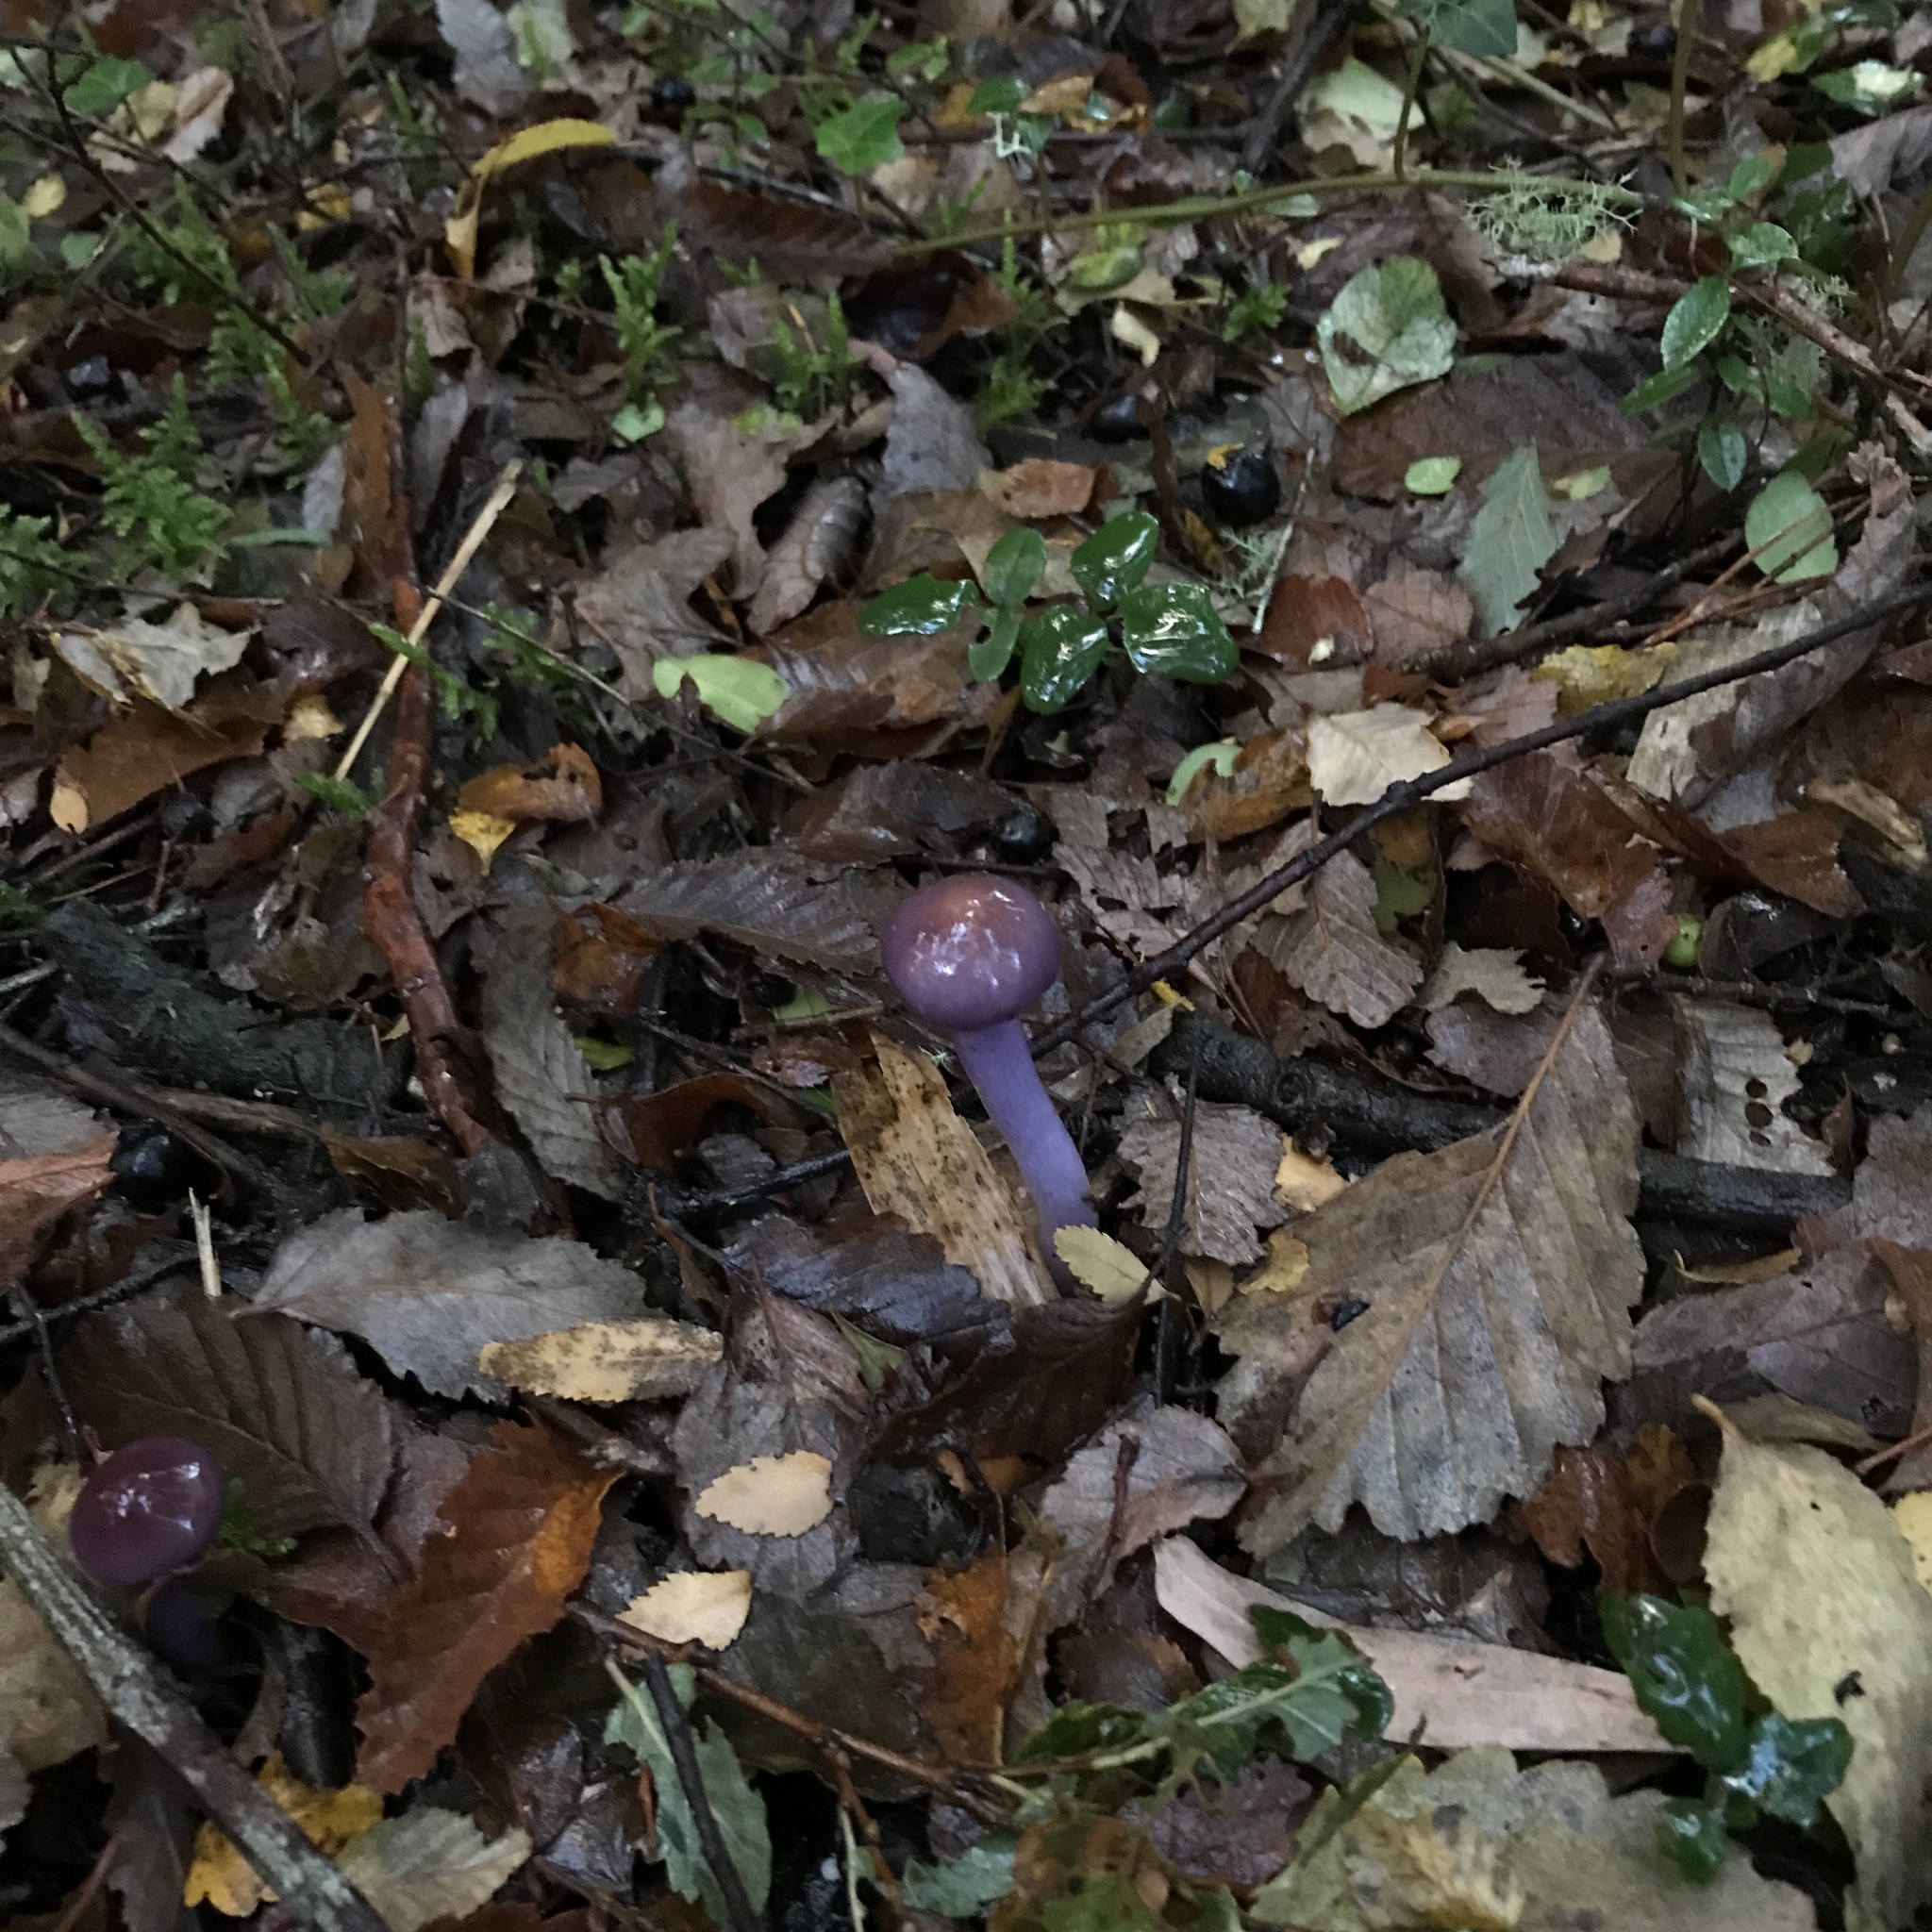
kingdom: Fungi
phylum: Basidiomycota
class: Agaricomycetes
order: Agaricales
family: Cortinariaceae
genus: Cortinarius
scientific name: Cortinarius magellanicus
